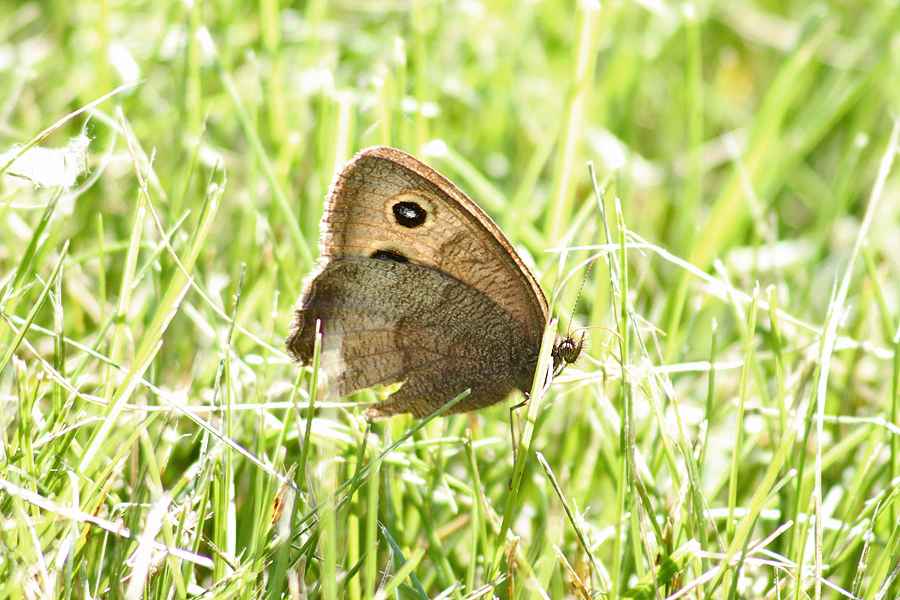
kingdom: Animalia
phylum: Arthropoda
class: Insecta
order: Lepidoptera
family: Nymphalidae
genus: Cercyonis
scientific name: Cercyonis pegala
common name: Common wood-nymph
